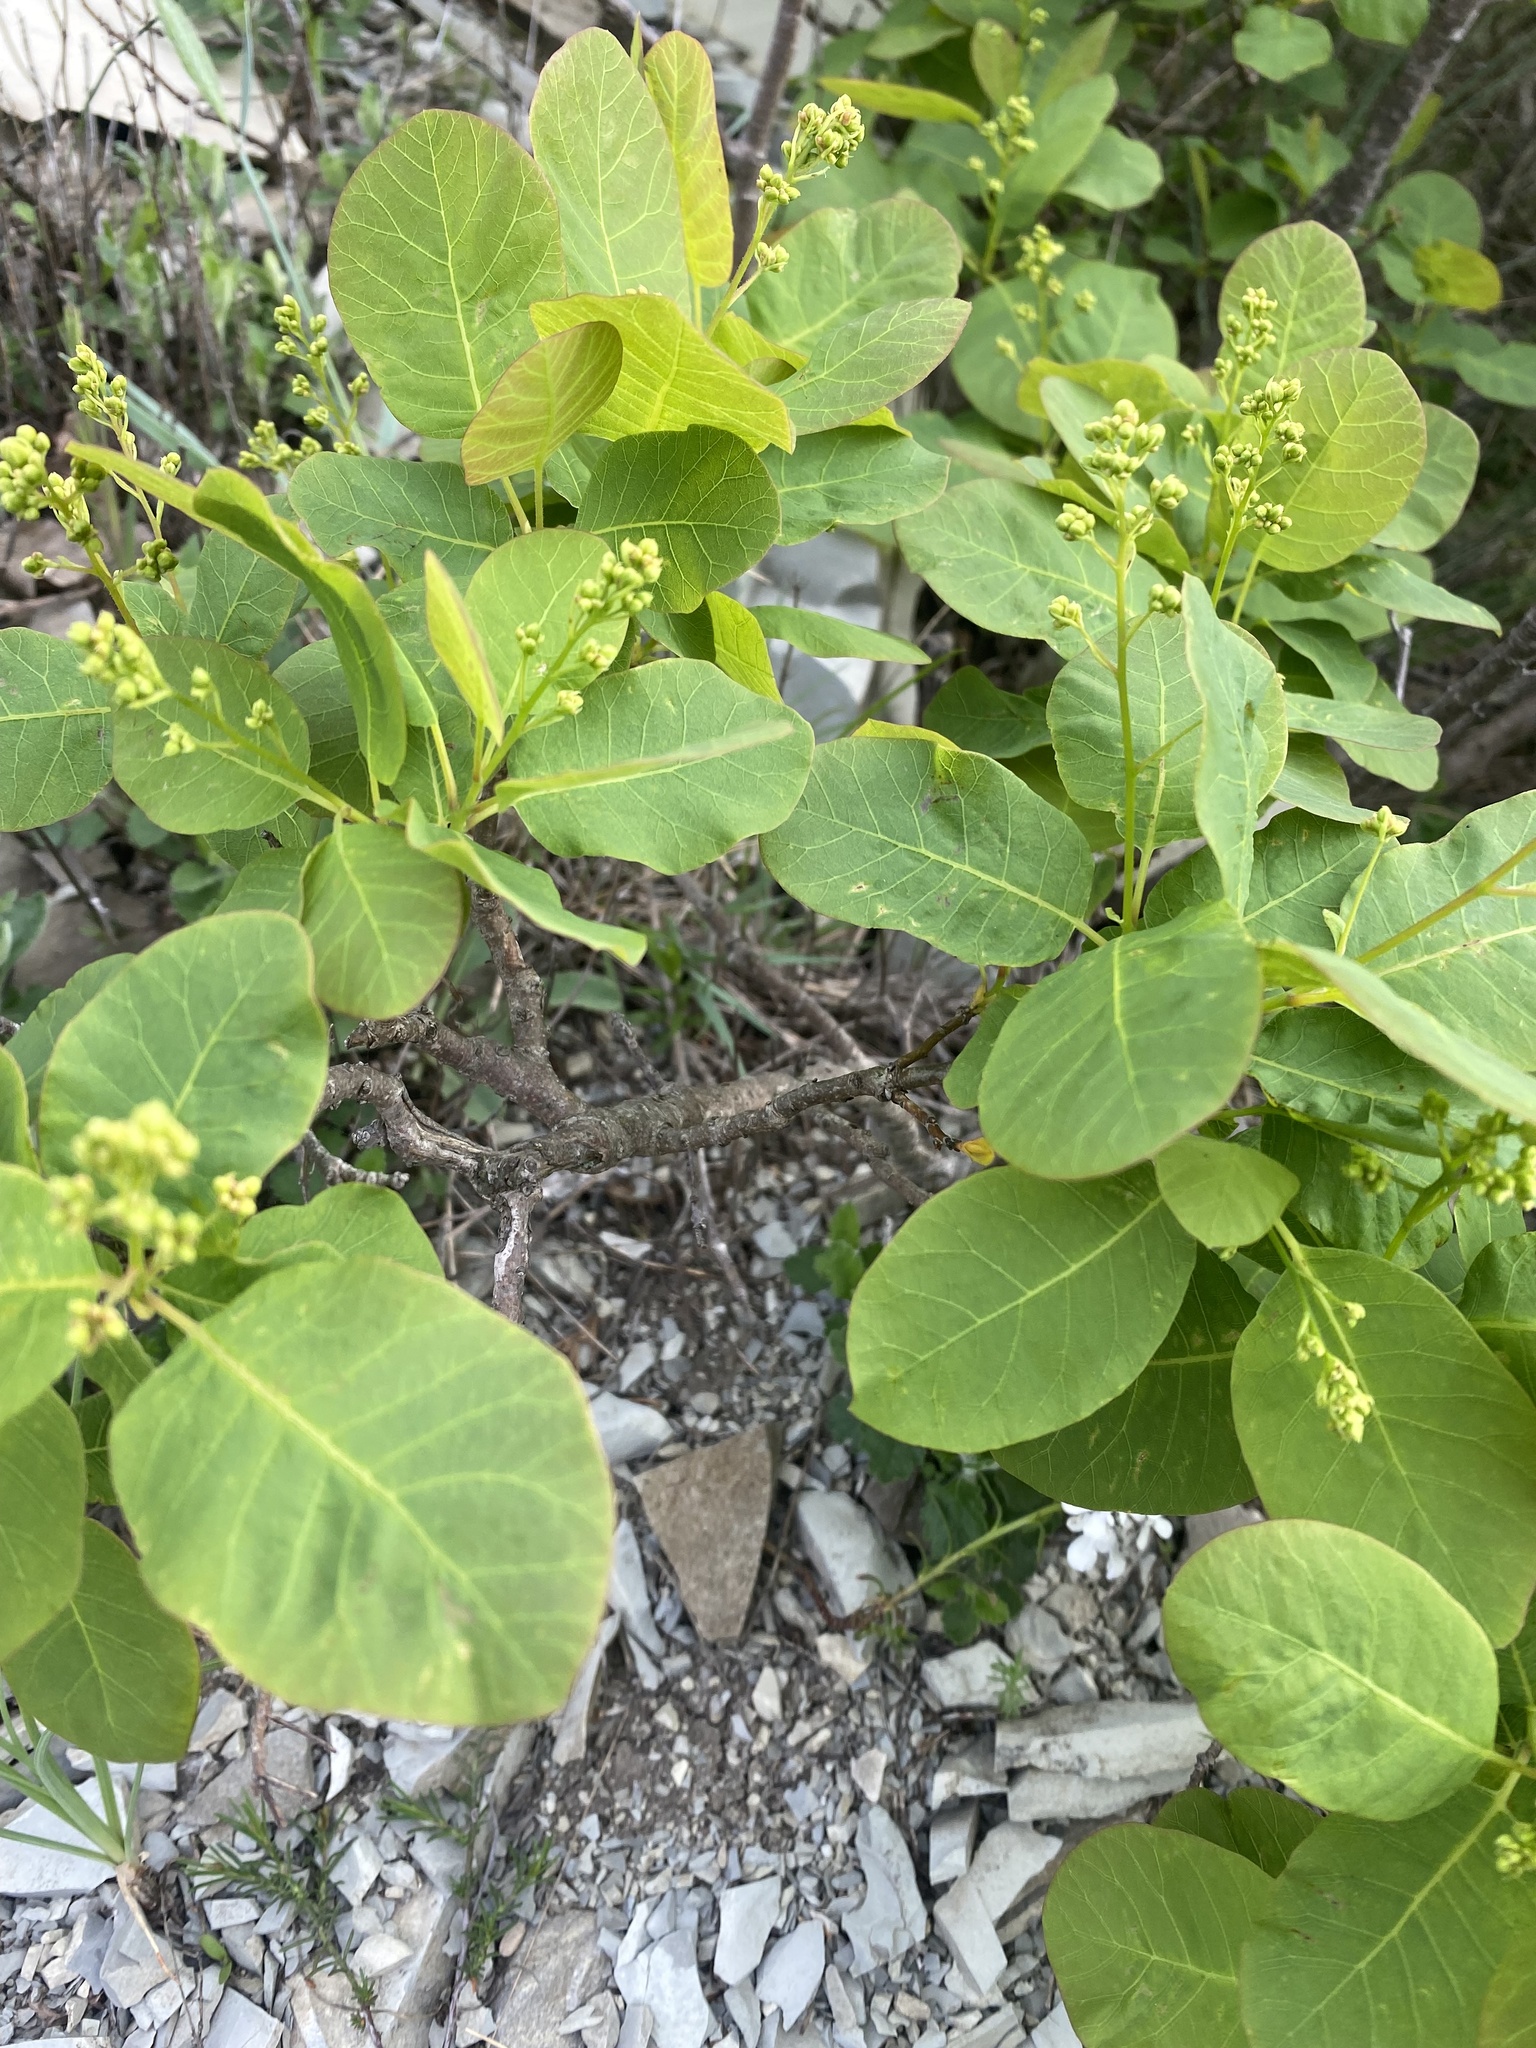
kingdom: Plantae
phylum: Tracheophyta
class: Magnoliopsida
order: Sapindales
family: Anacardiaceae
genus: Cotinus
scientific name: Cotinus coggygria
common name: Smoke-tree
